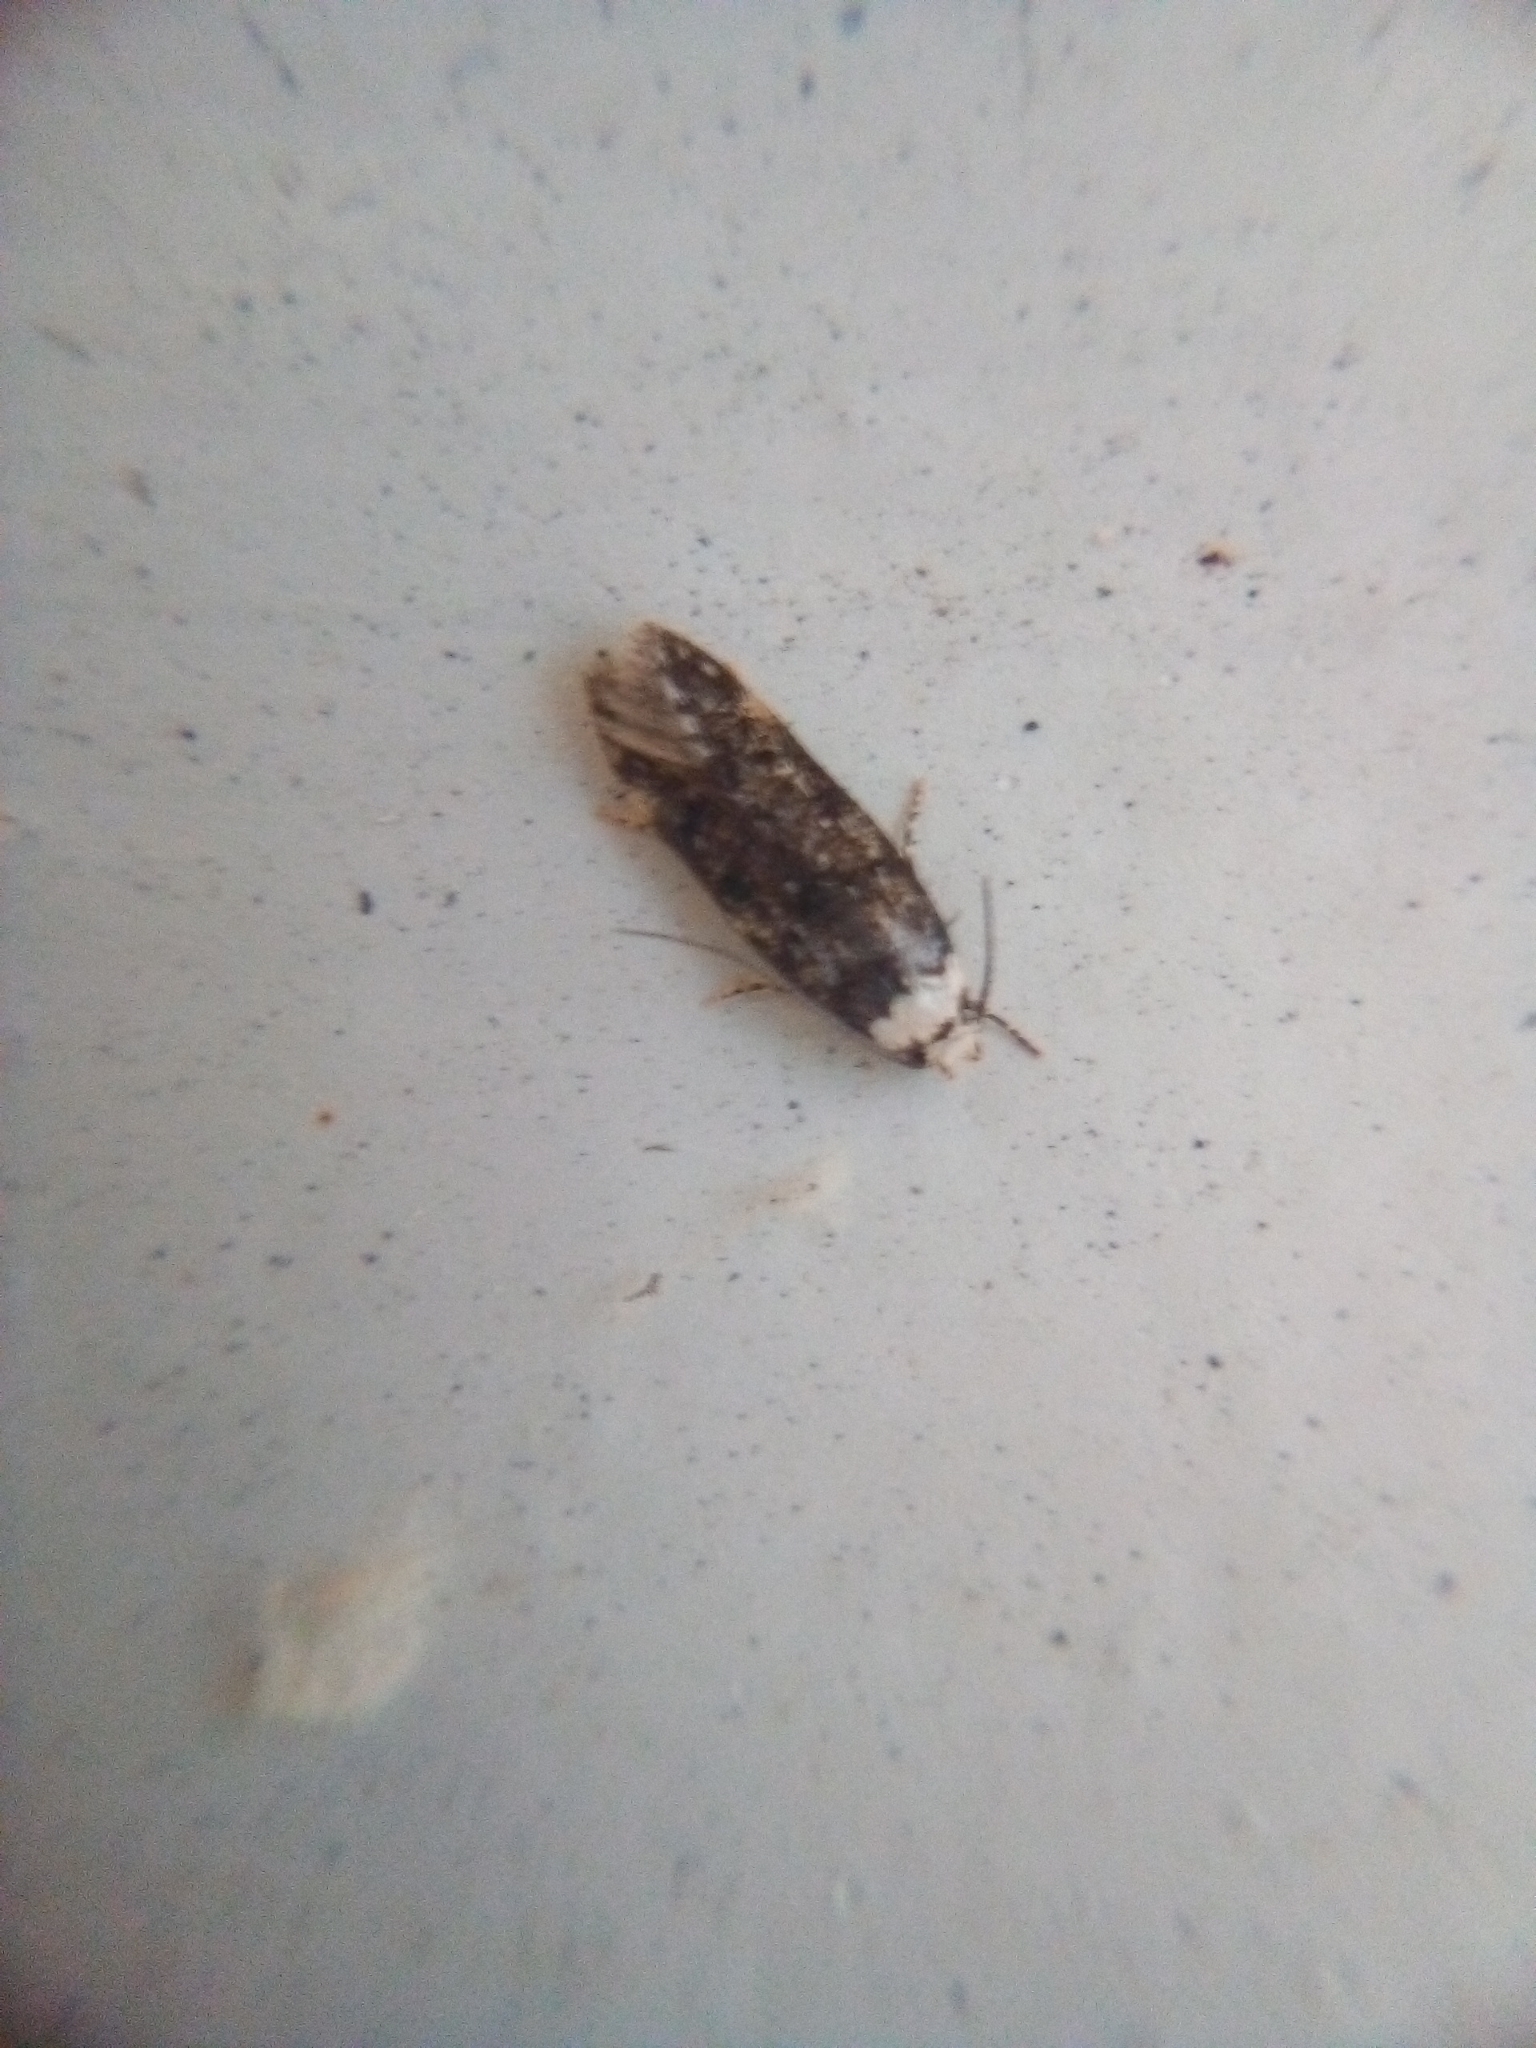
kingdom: Animalia
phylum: Arthropoda
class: Insecta
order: Lepidoptera
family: Oecophoridae
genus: Endrosis
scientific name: Endrosis sarcitrella
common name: White-shouldered house moth
